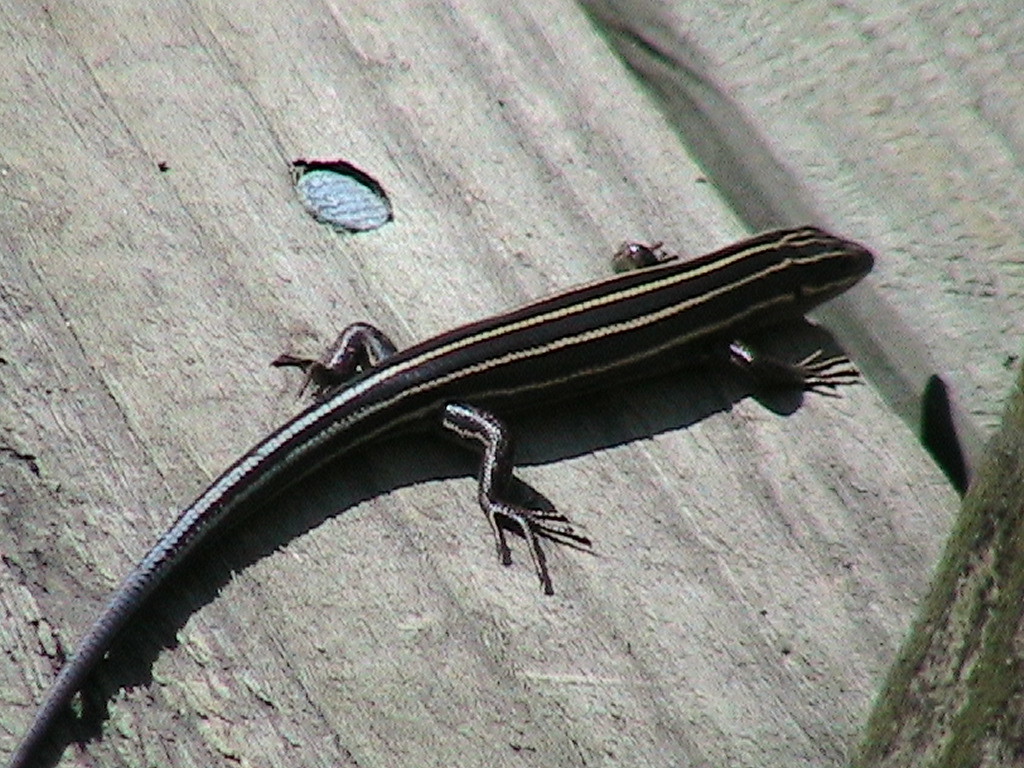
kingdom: Animalia
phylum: Chordata
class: Squamata
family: Scincidae
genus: Plestiodon
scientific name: Plestiodon fasciatus
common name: Five-lined skink
